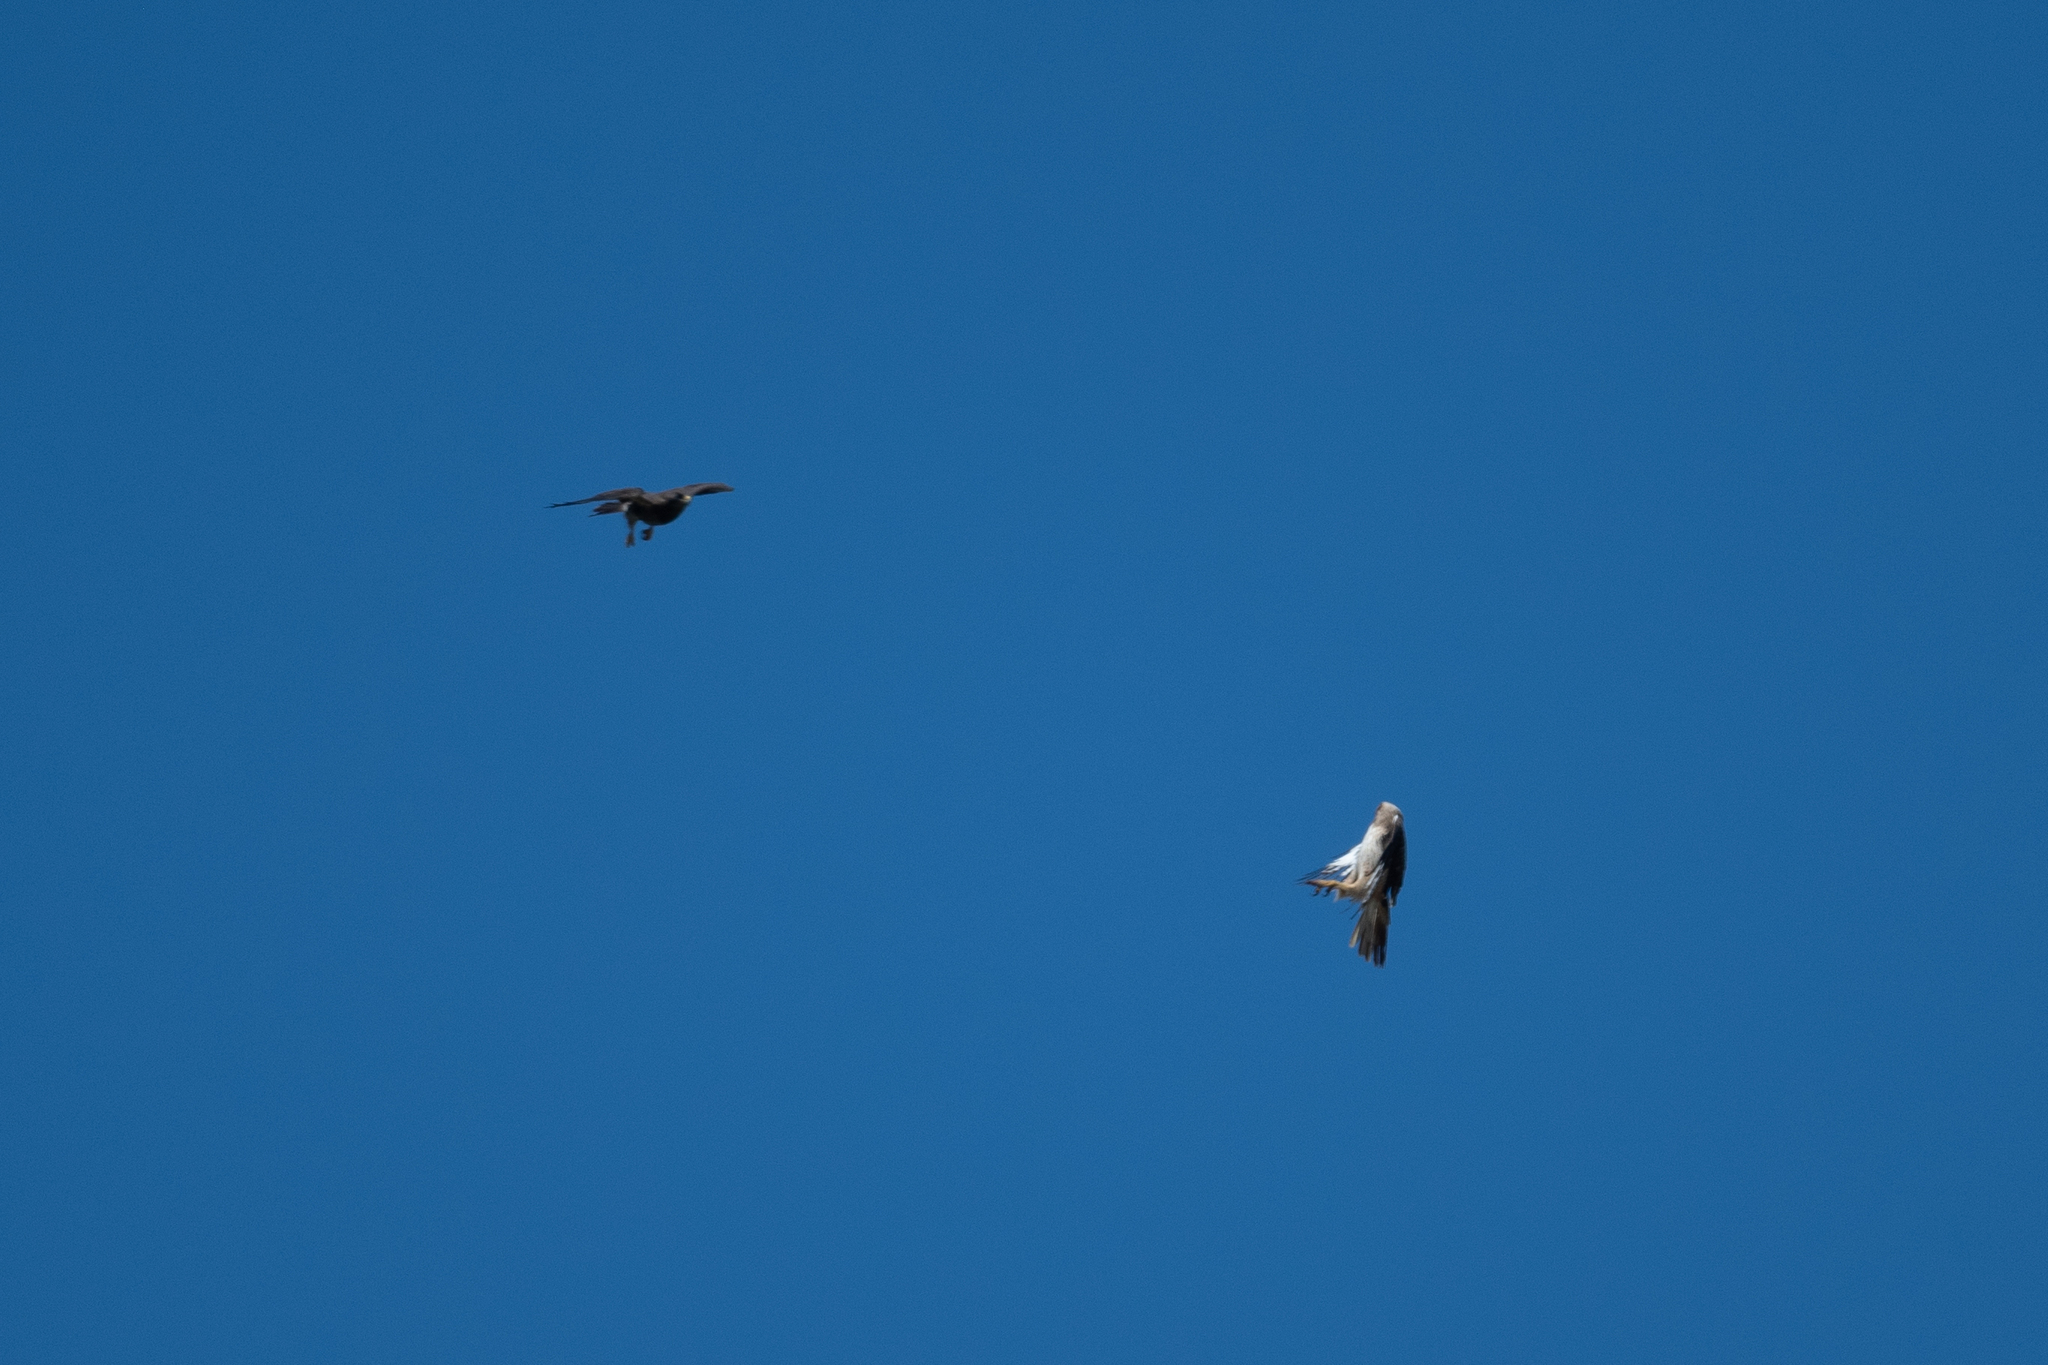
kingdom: Animalia
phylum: Chordata
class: Aves
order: Accipitriformes
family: Accipitridae
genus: Buteo
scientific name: Buteo jamaicensis
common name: Red-tailed hawk
